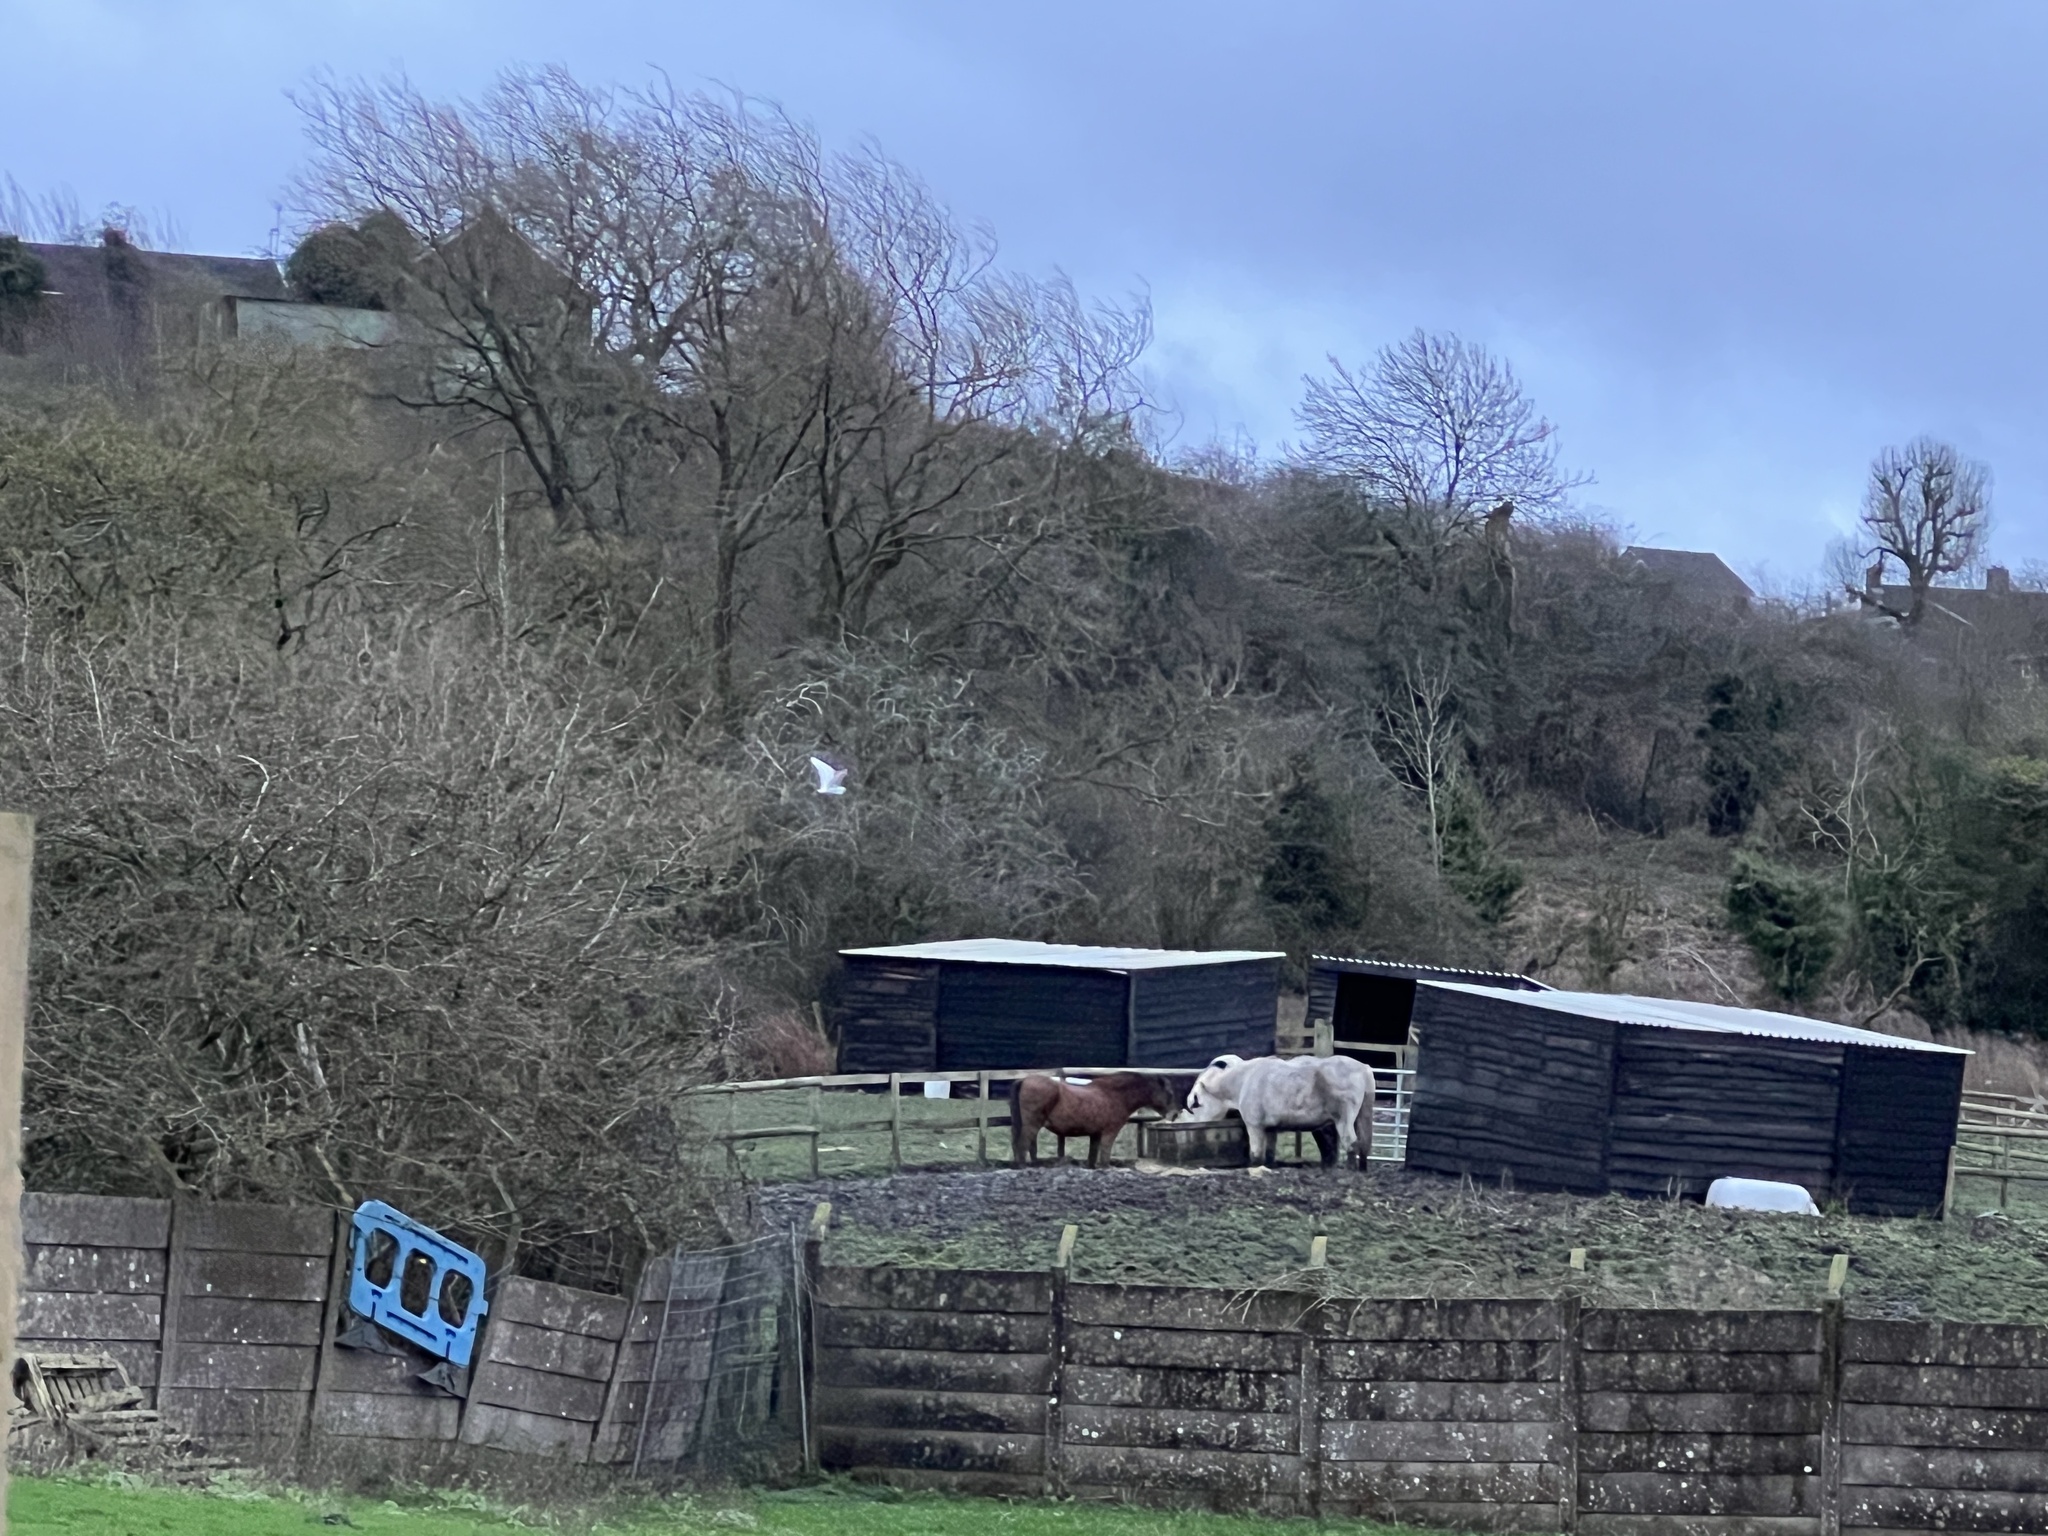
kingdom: Animalia
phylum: Chordata
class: Aves
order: Pelecaniformes
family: Ardeidae
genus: Egretta
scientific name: Egretta garzetta
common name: Little egret
